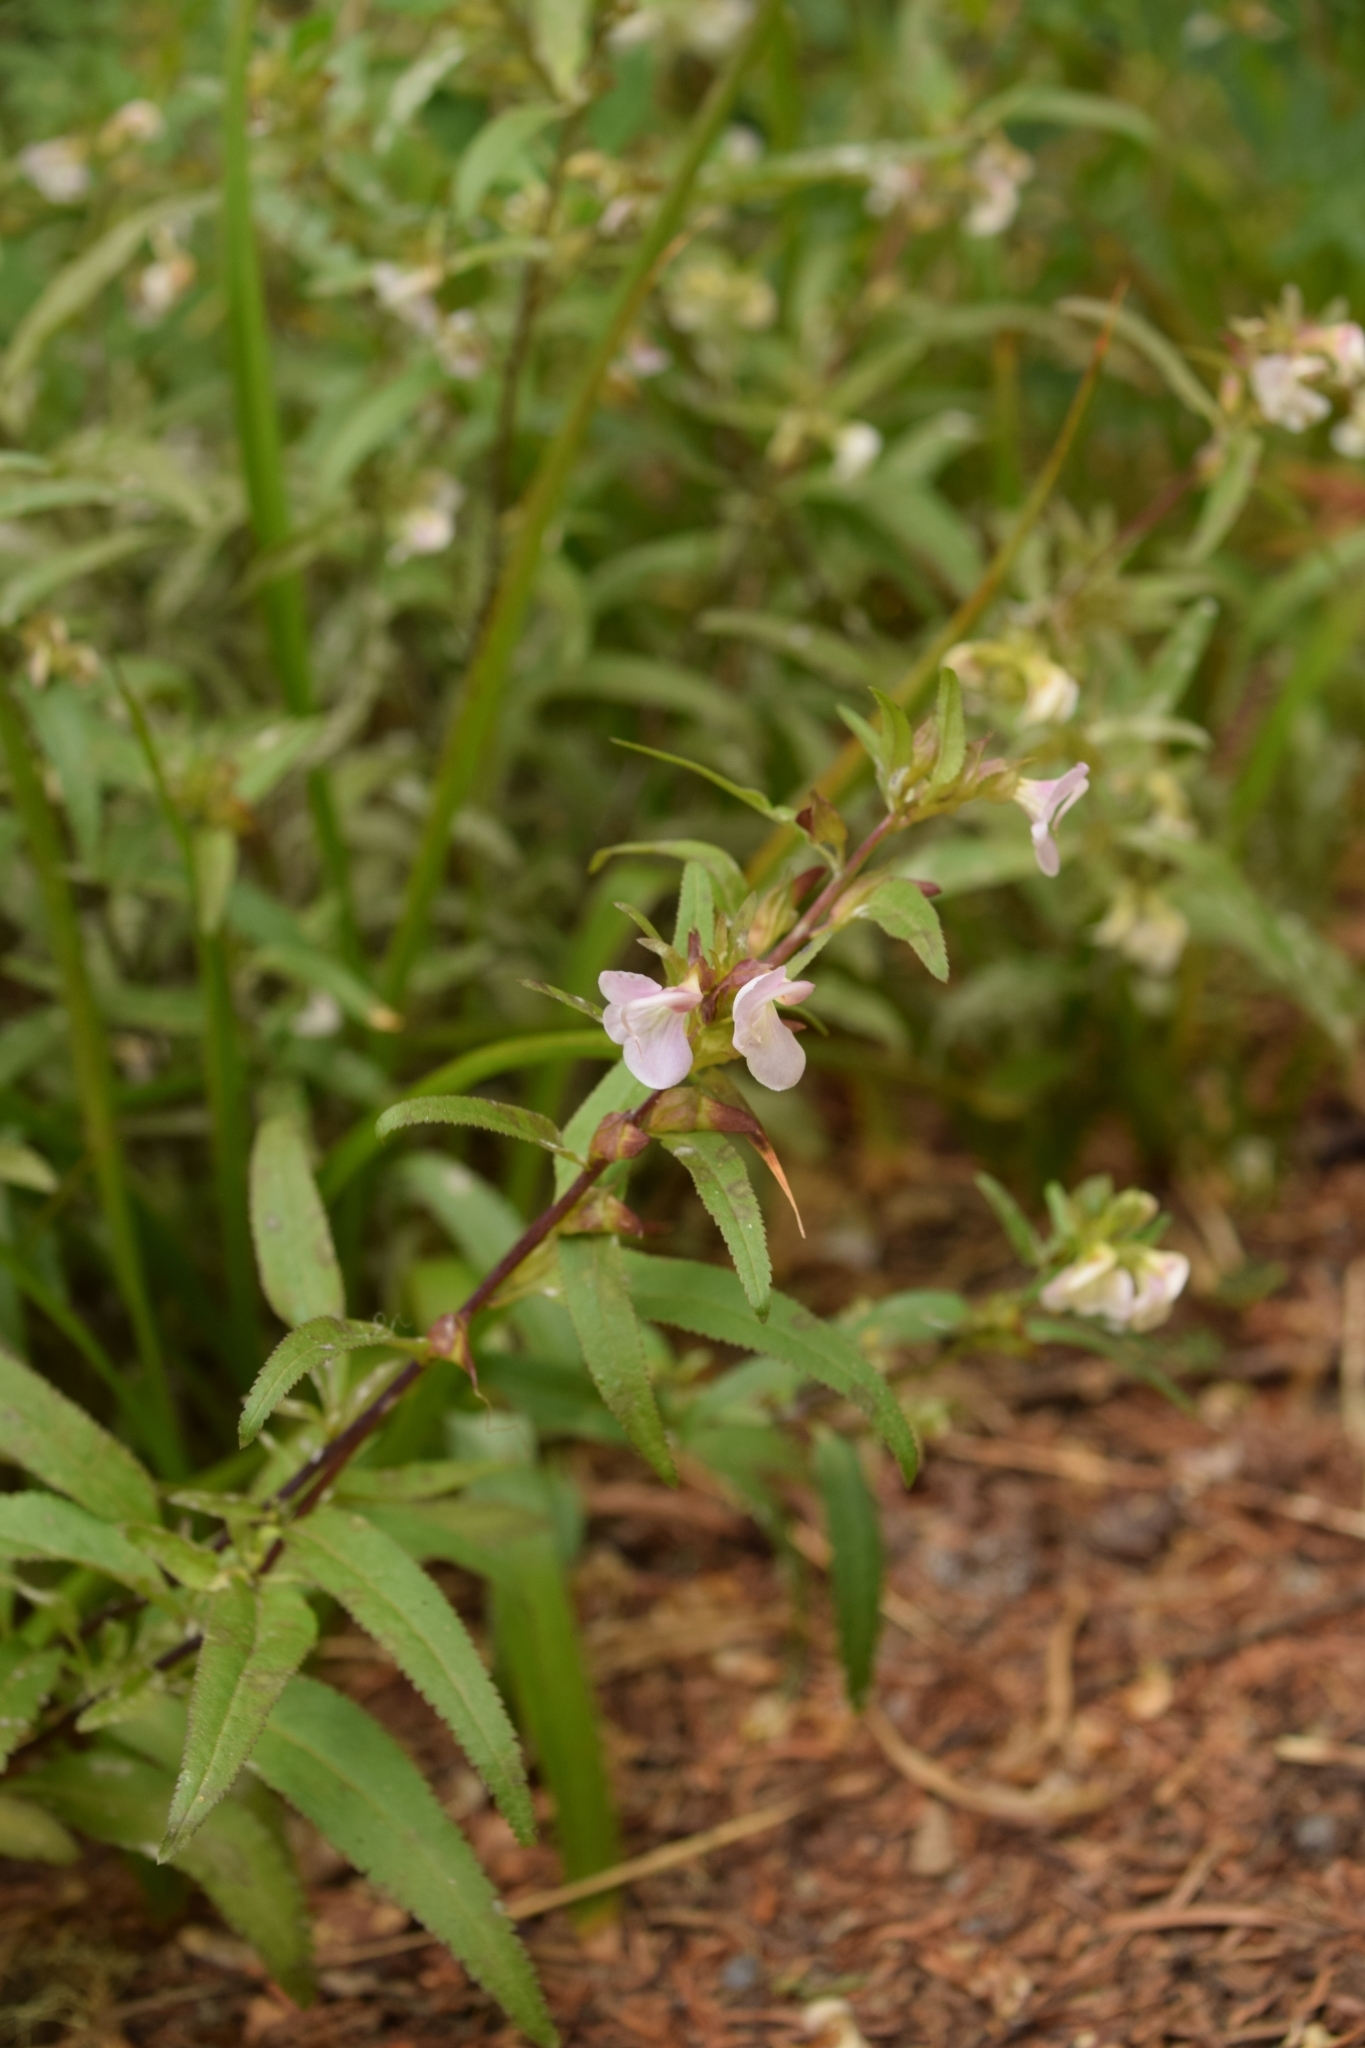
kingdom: Plantae
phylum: Tracheophyta
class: Magnoliopsida
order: Lamiales
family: Orobanchaceae
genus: Pedicularis
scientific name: Pedicularis racemosa
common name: Leafy lousewort
